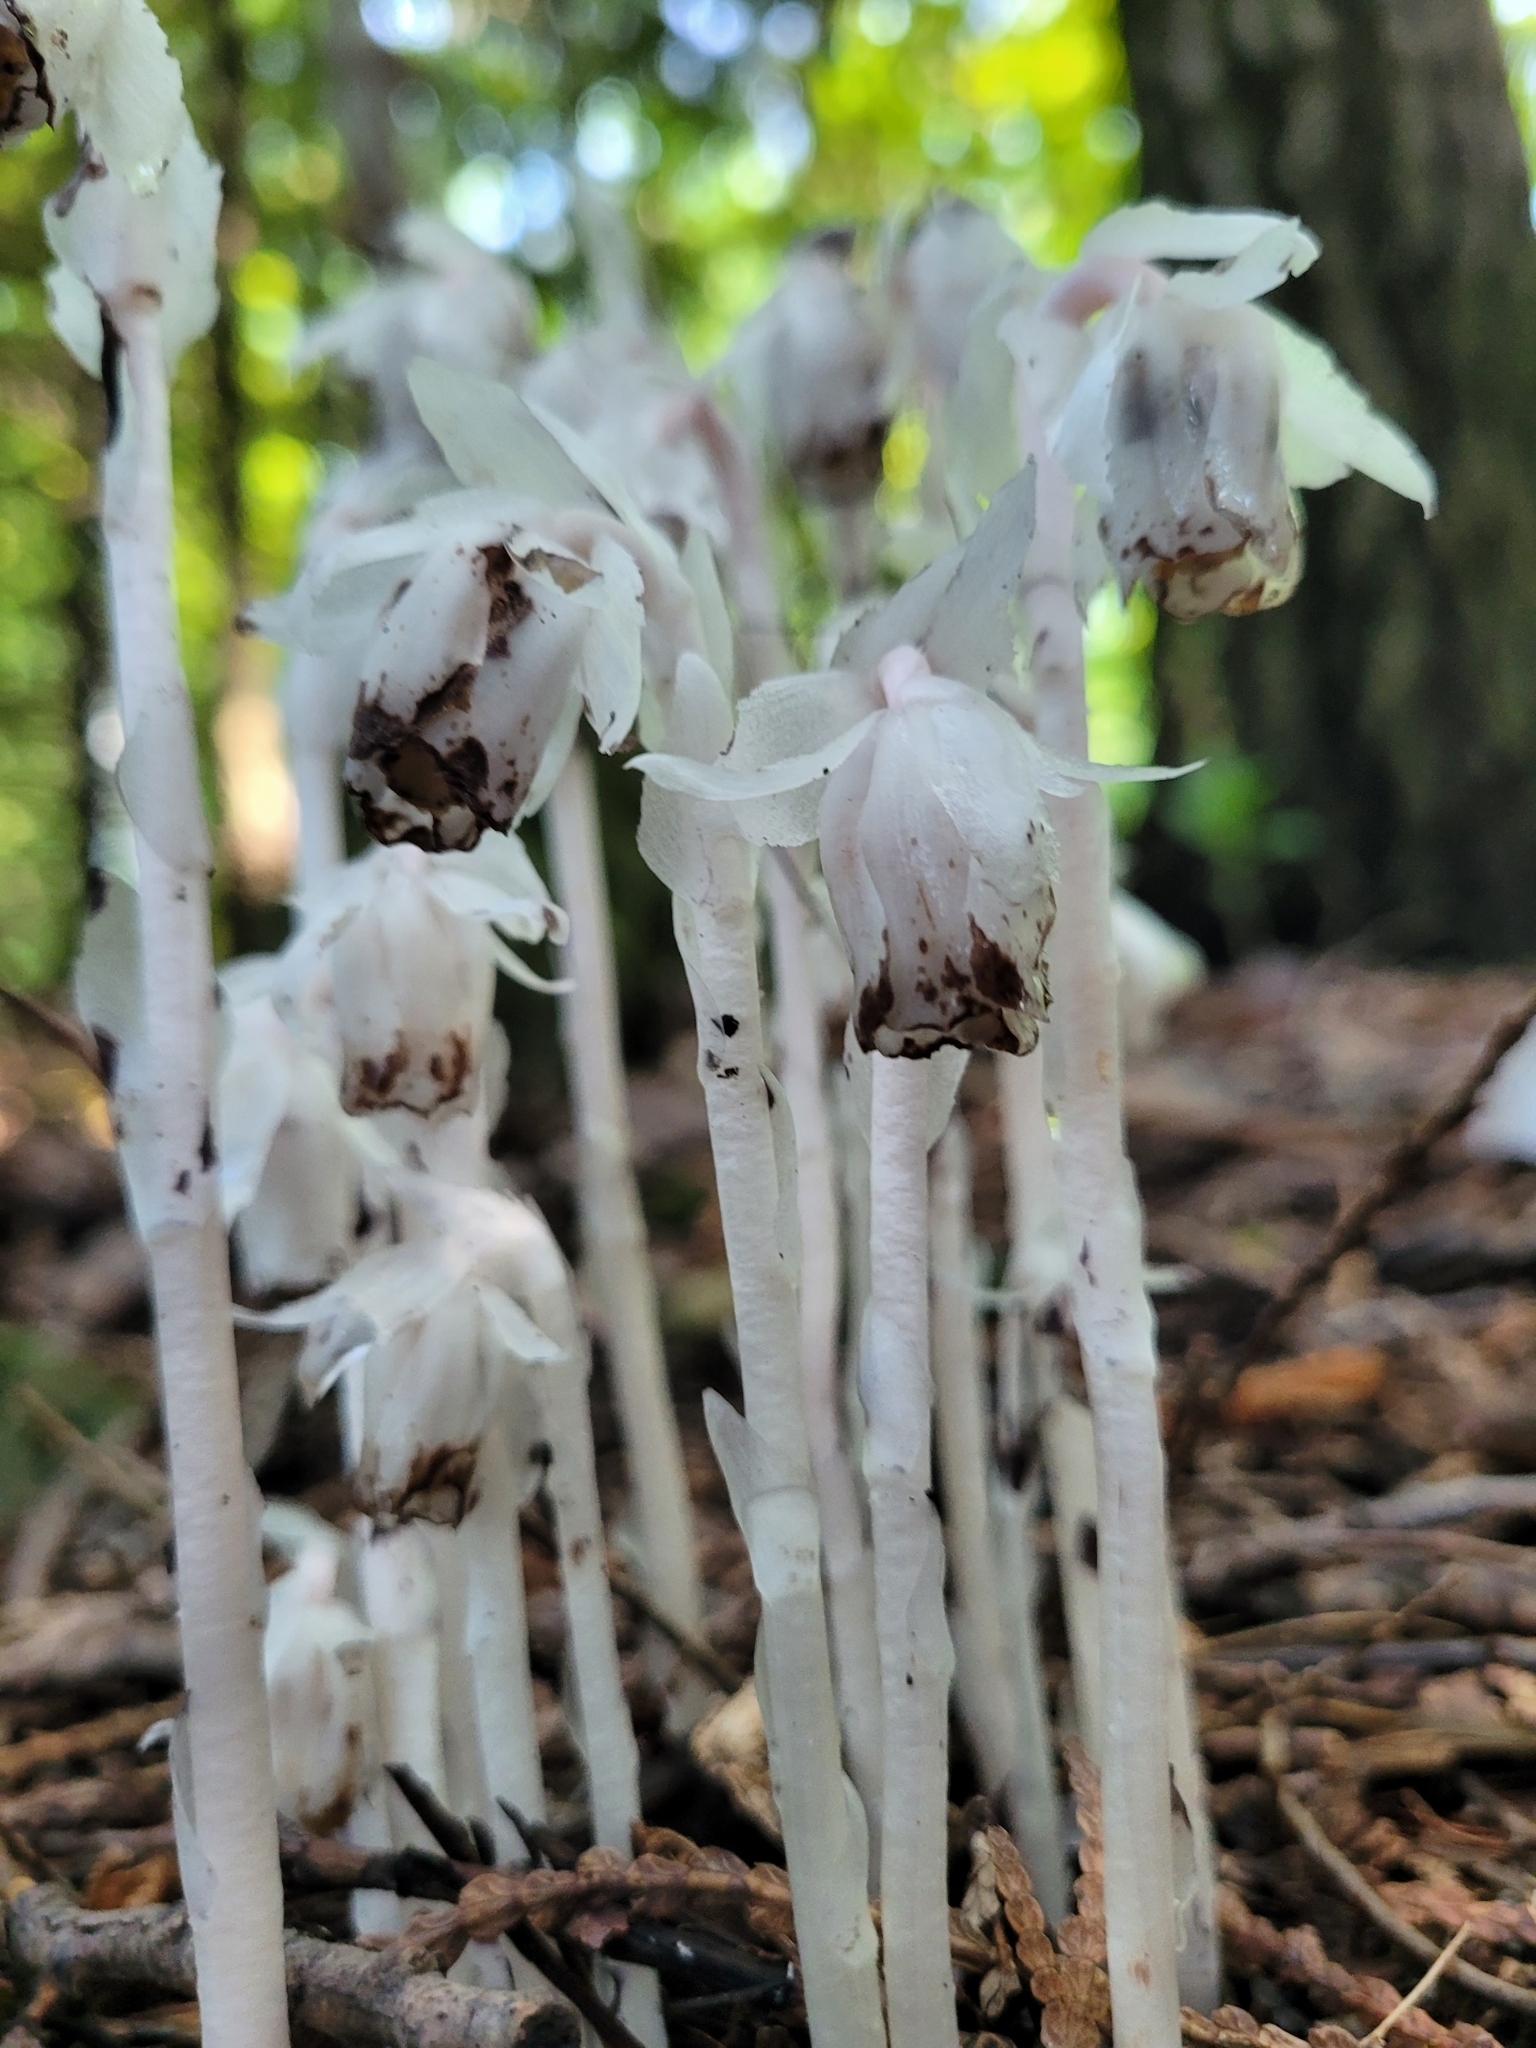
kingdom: Plantae
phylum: Tracheophyta
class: Magnoliopsida
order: Ericales
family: Ericaceae
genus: Monotropa
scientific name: Monotropa uniflora
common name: Convulsion root
